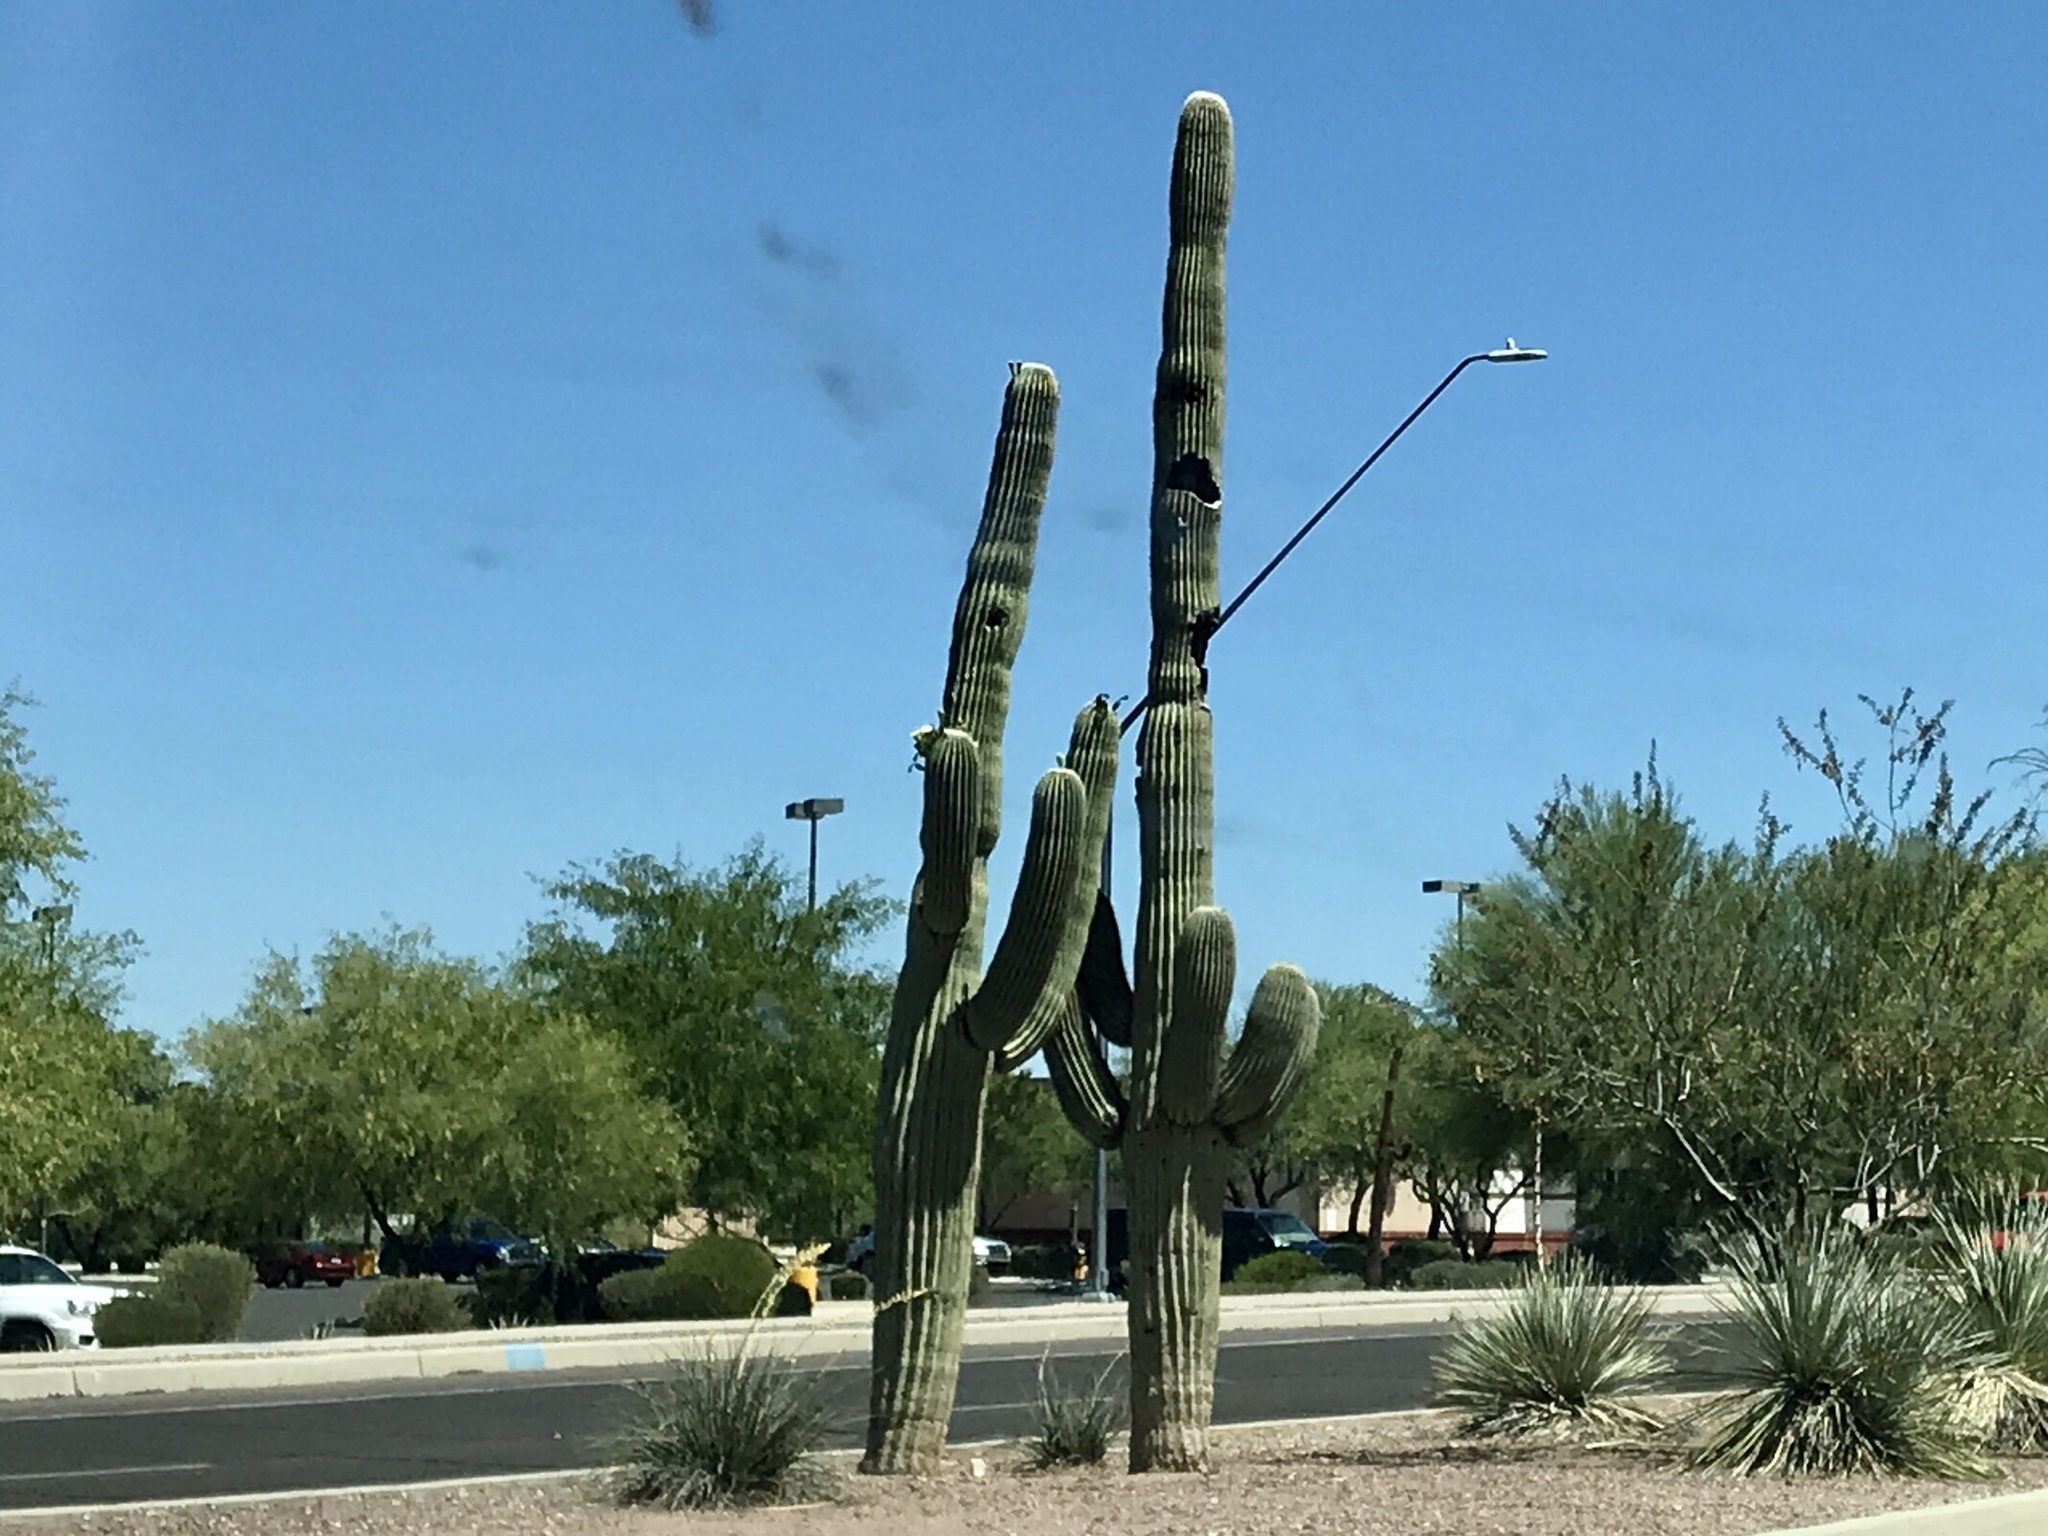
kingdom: Plantae
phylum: Tracheophyta
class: Magnoliopsida
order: Caryophyllales
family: Cactaceae
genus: Carnegiea
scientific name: Carnegiea gigantea
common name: Saguaro
